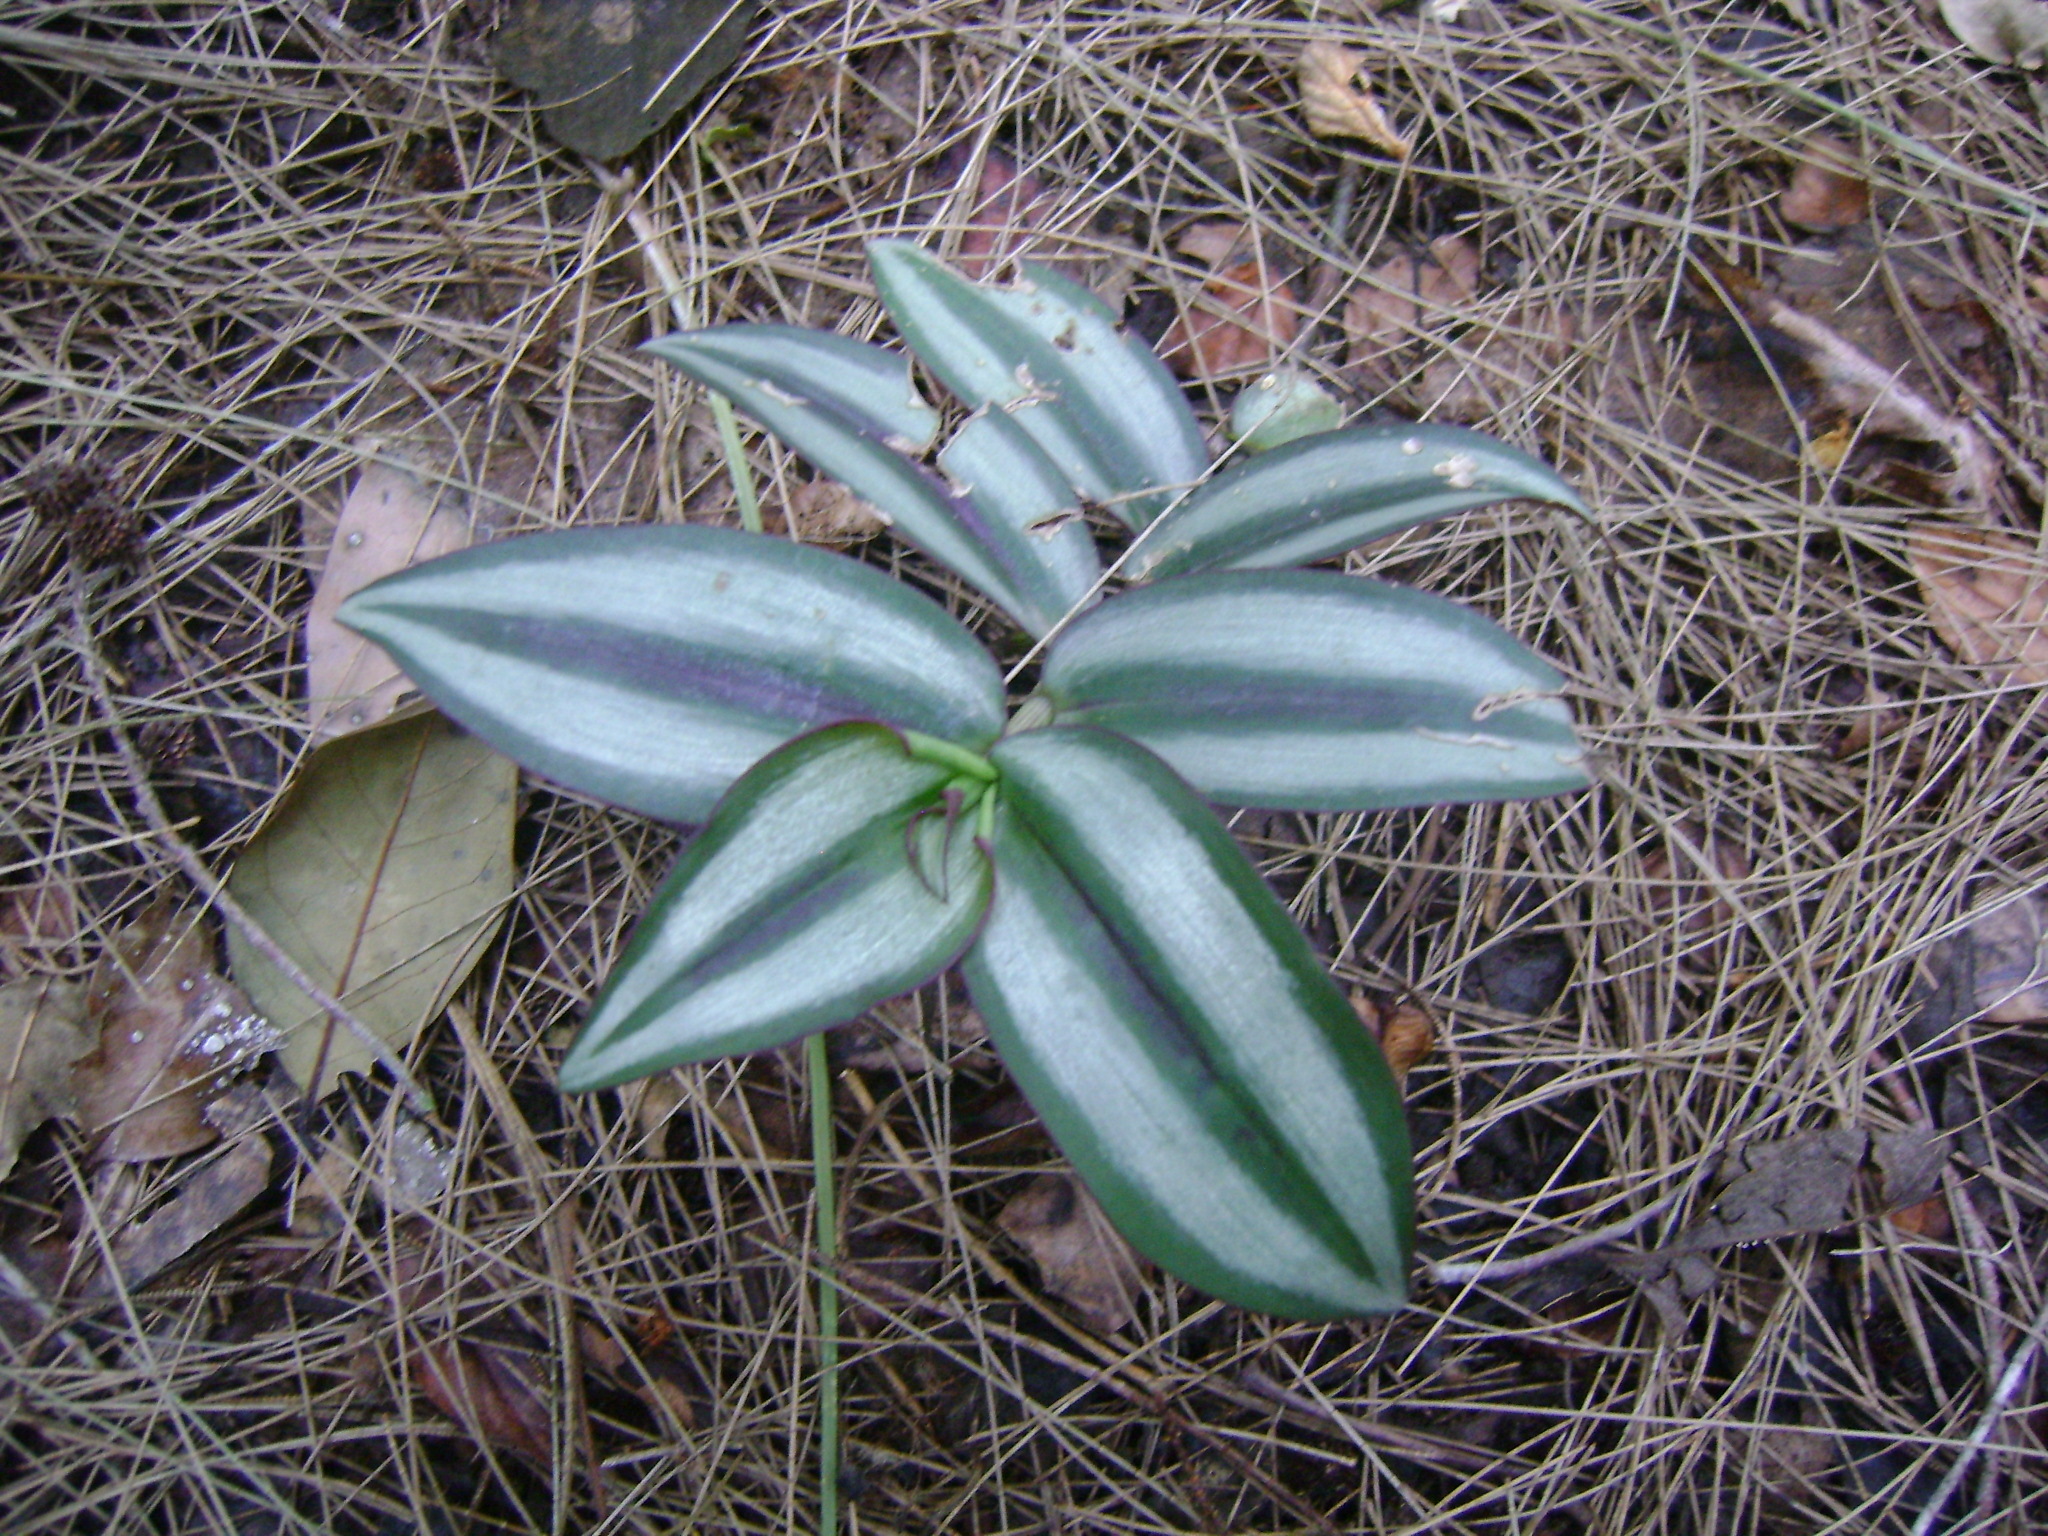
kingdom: Plantae
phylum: Tracheophyta
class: Liliopsida
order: Commelinales
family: Commelinaceae
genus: Tradescantia
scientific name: Tradescantia zebrina
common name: Inchplant
